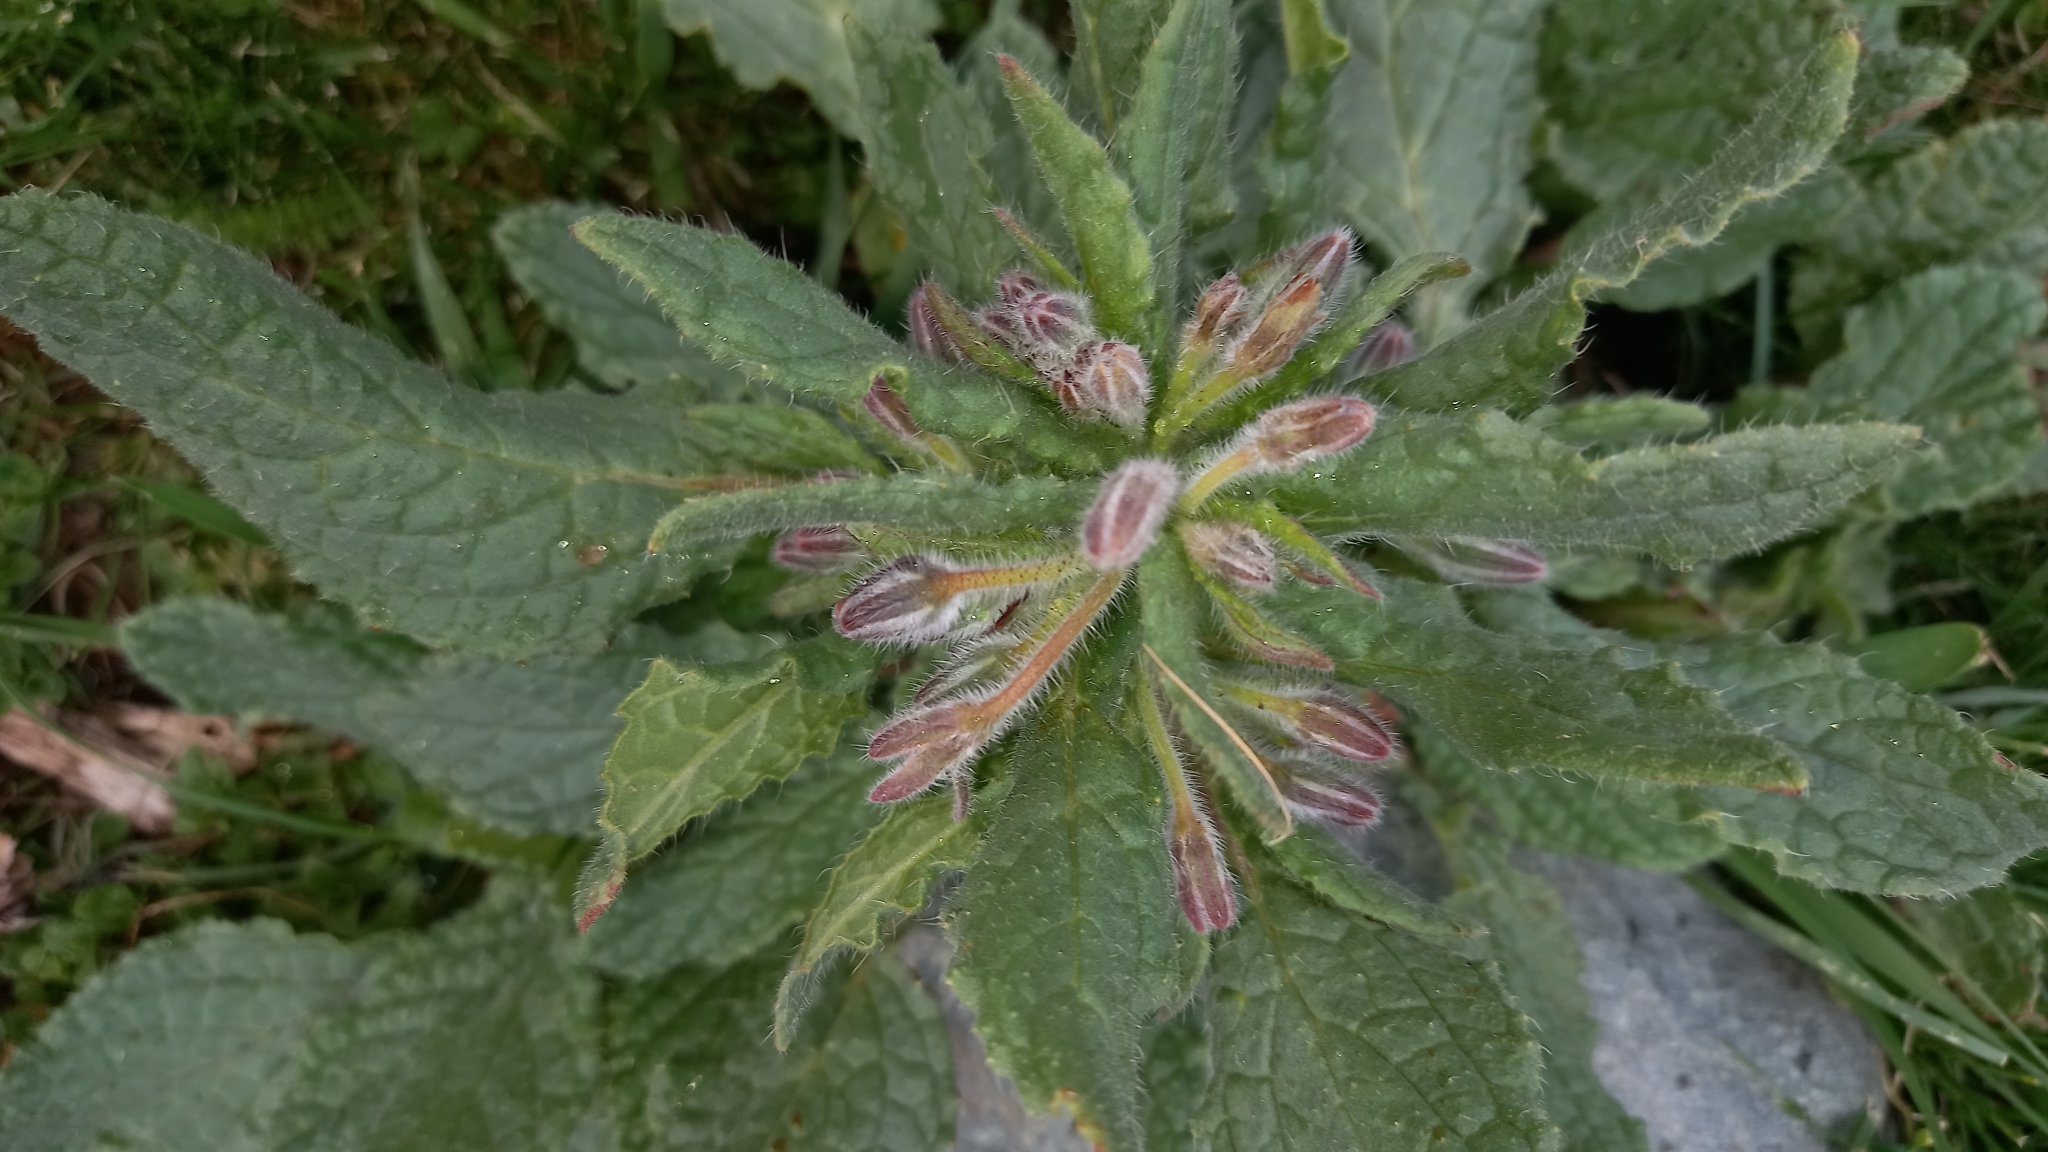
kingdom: Plantae
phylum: Tracheophyta
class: Magnoliopsida
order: Boraginales
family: Boraginaceae
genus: Borago
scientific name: Borago officinalis
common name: Borage
